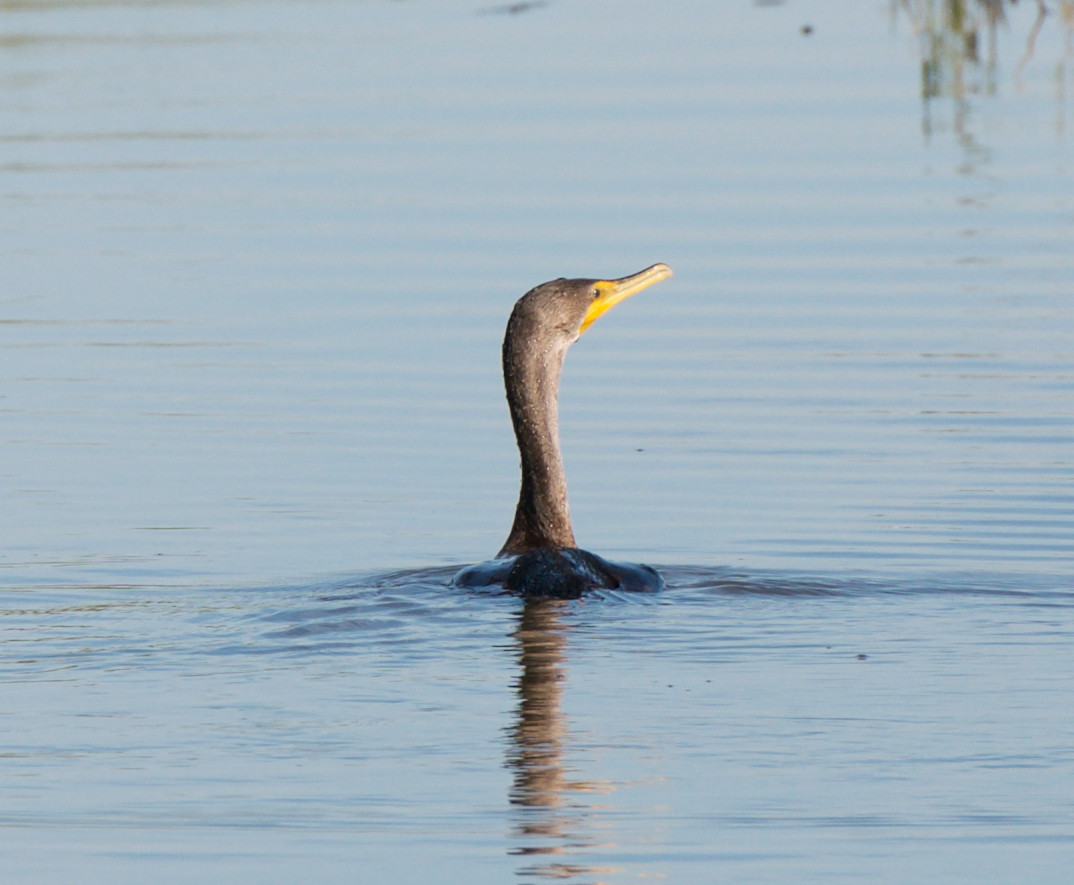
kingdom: Animalia
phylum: Chordata
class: Aves
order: Suliformes
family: Phalacrocoracidae
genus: Phalacrocorax
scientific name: Phalacrocorax auritus
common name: Double-crested cormorant
